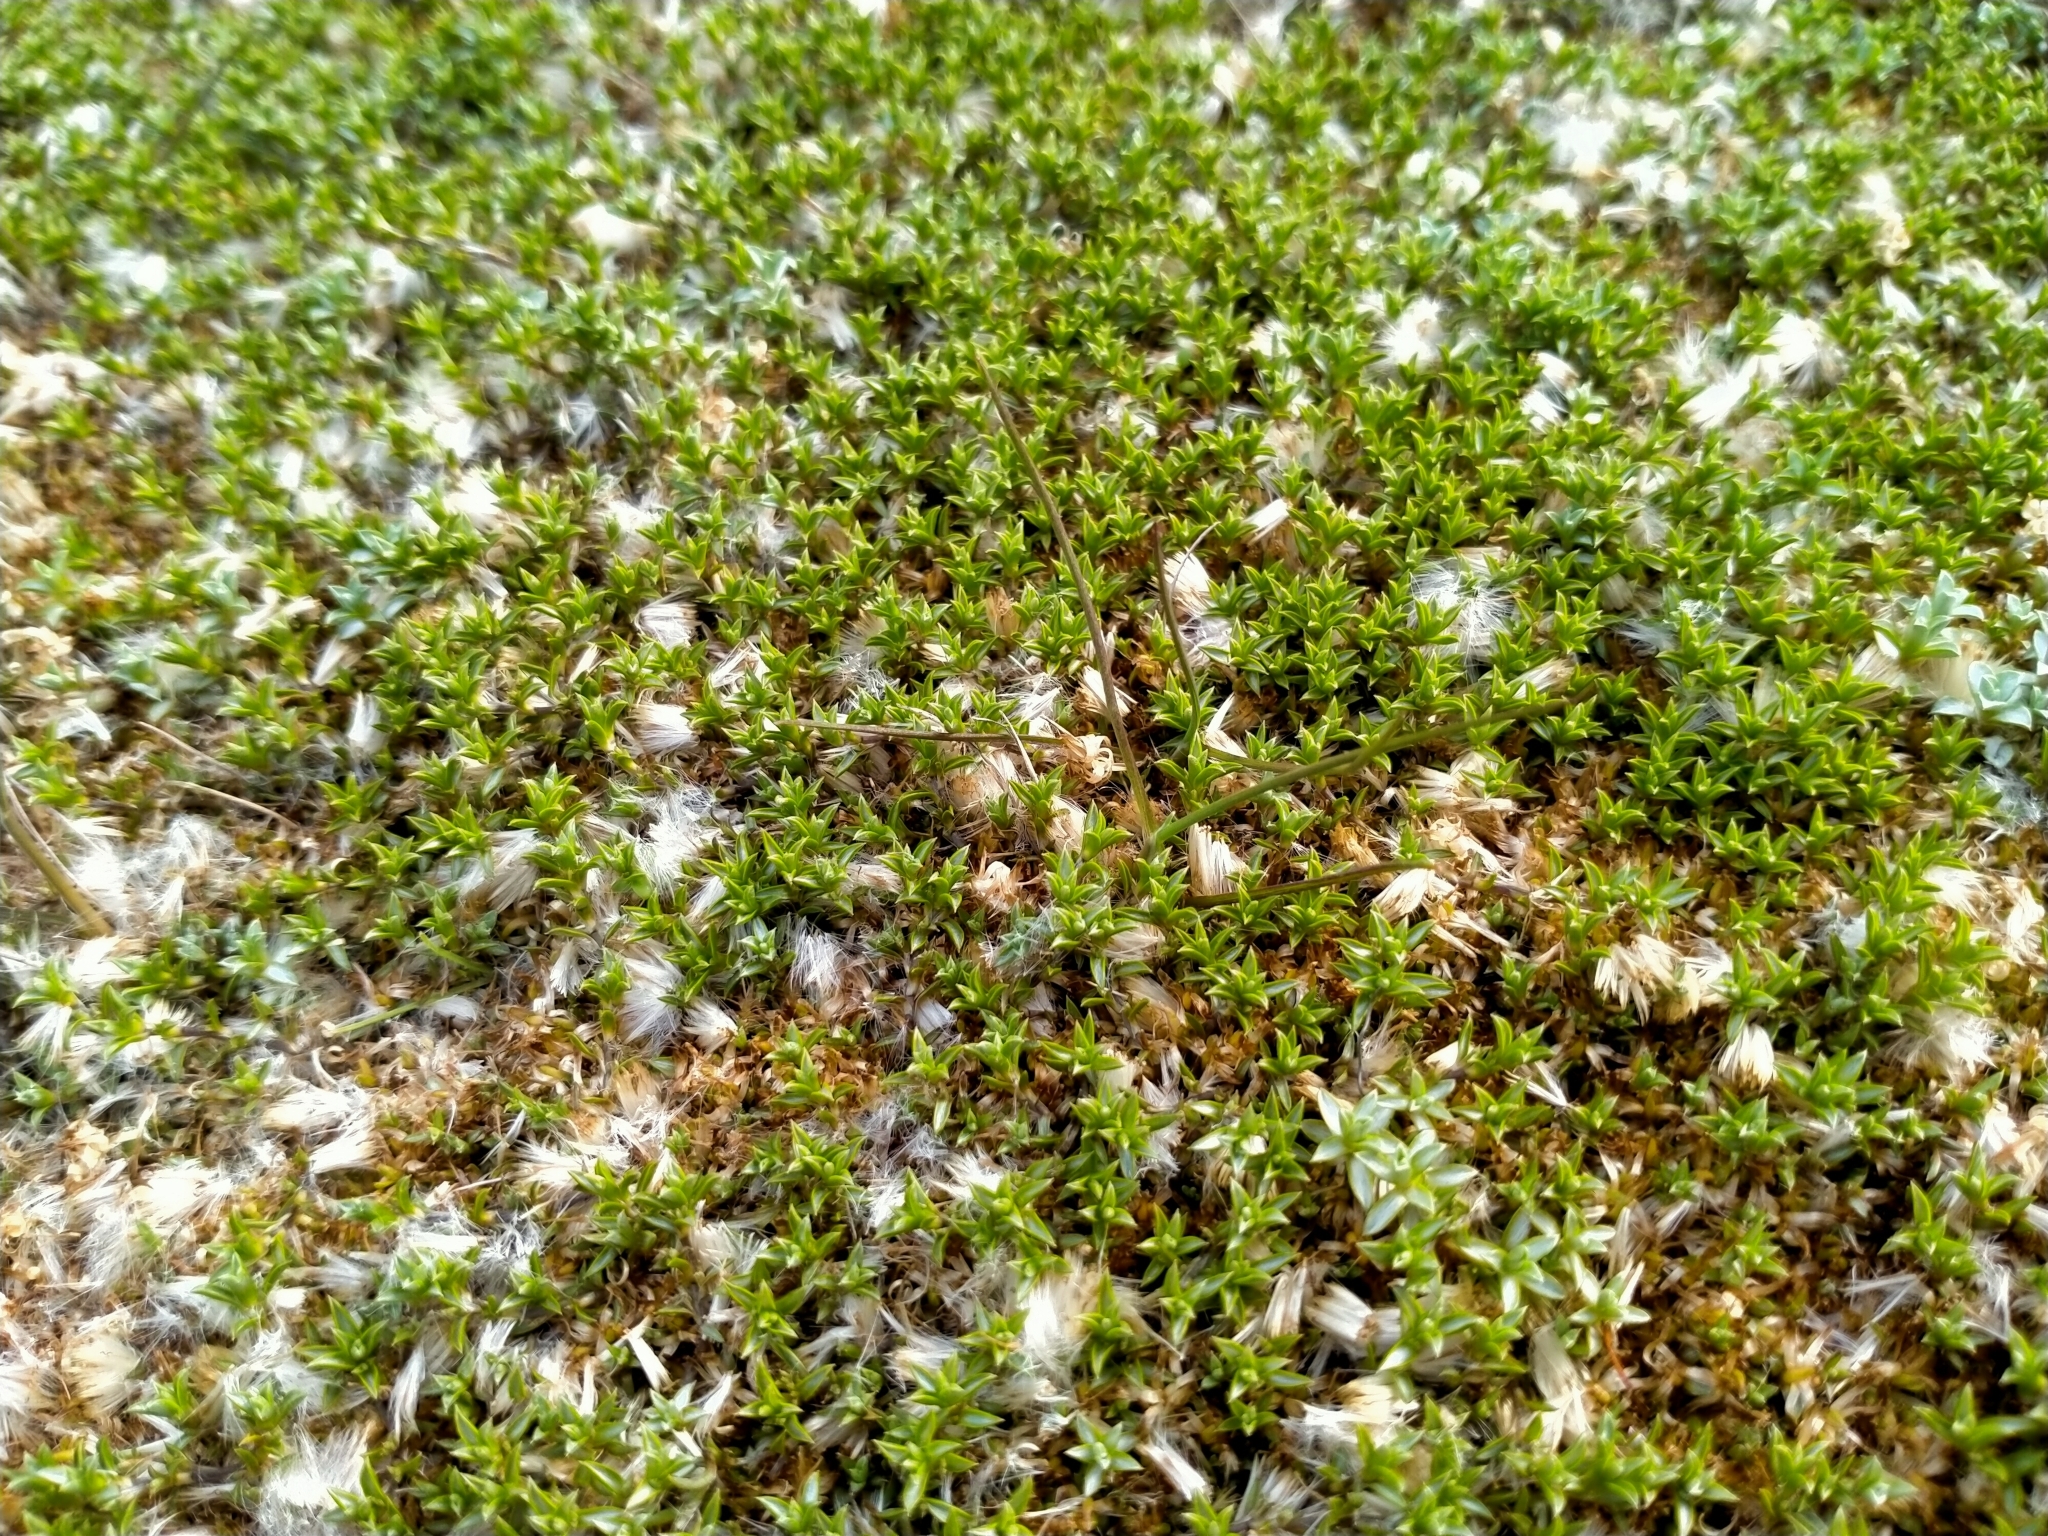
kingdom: Plantae
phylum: Tracheophyta
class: Magnoliopsida
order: Asterales
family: Asteraceae
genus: Raoulia
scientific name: Raoulia tenuicaulis
